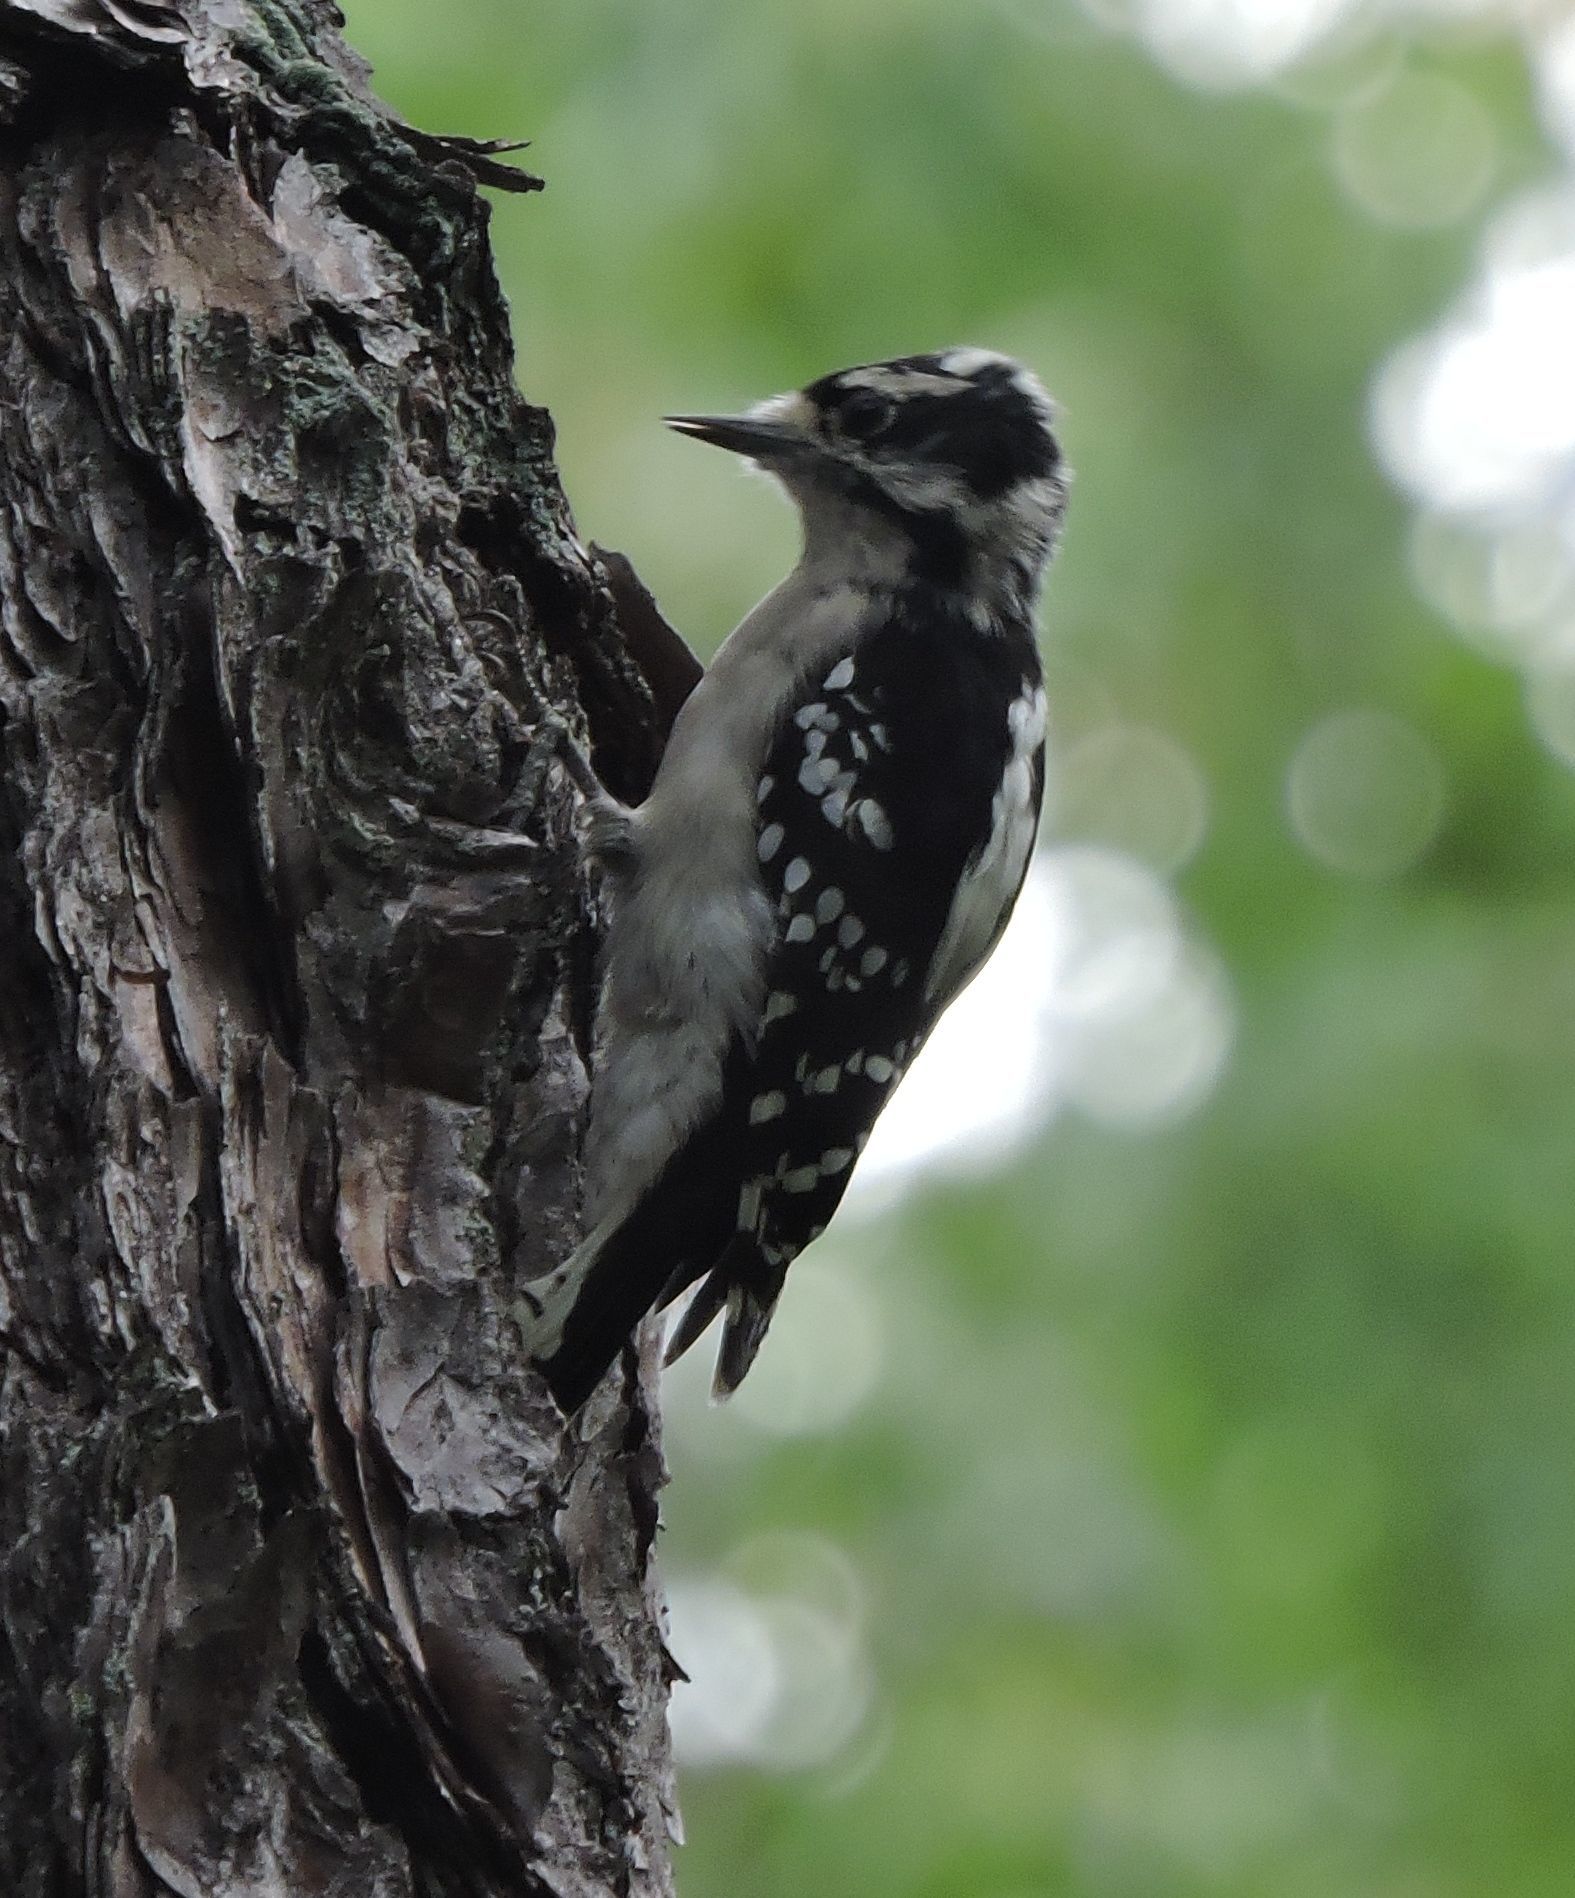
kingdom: Animalia
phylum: Chordata
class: Aves
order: Piciformes
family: Picidae
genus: Dryobates
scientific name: Dryobates pubescens
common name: Downy woodpecker
